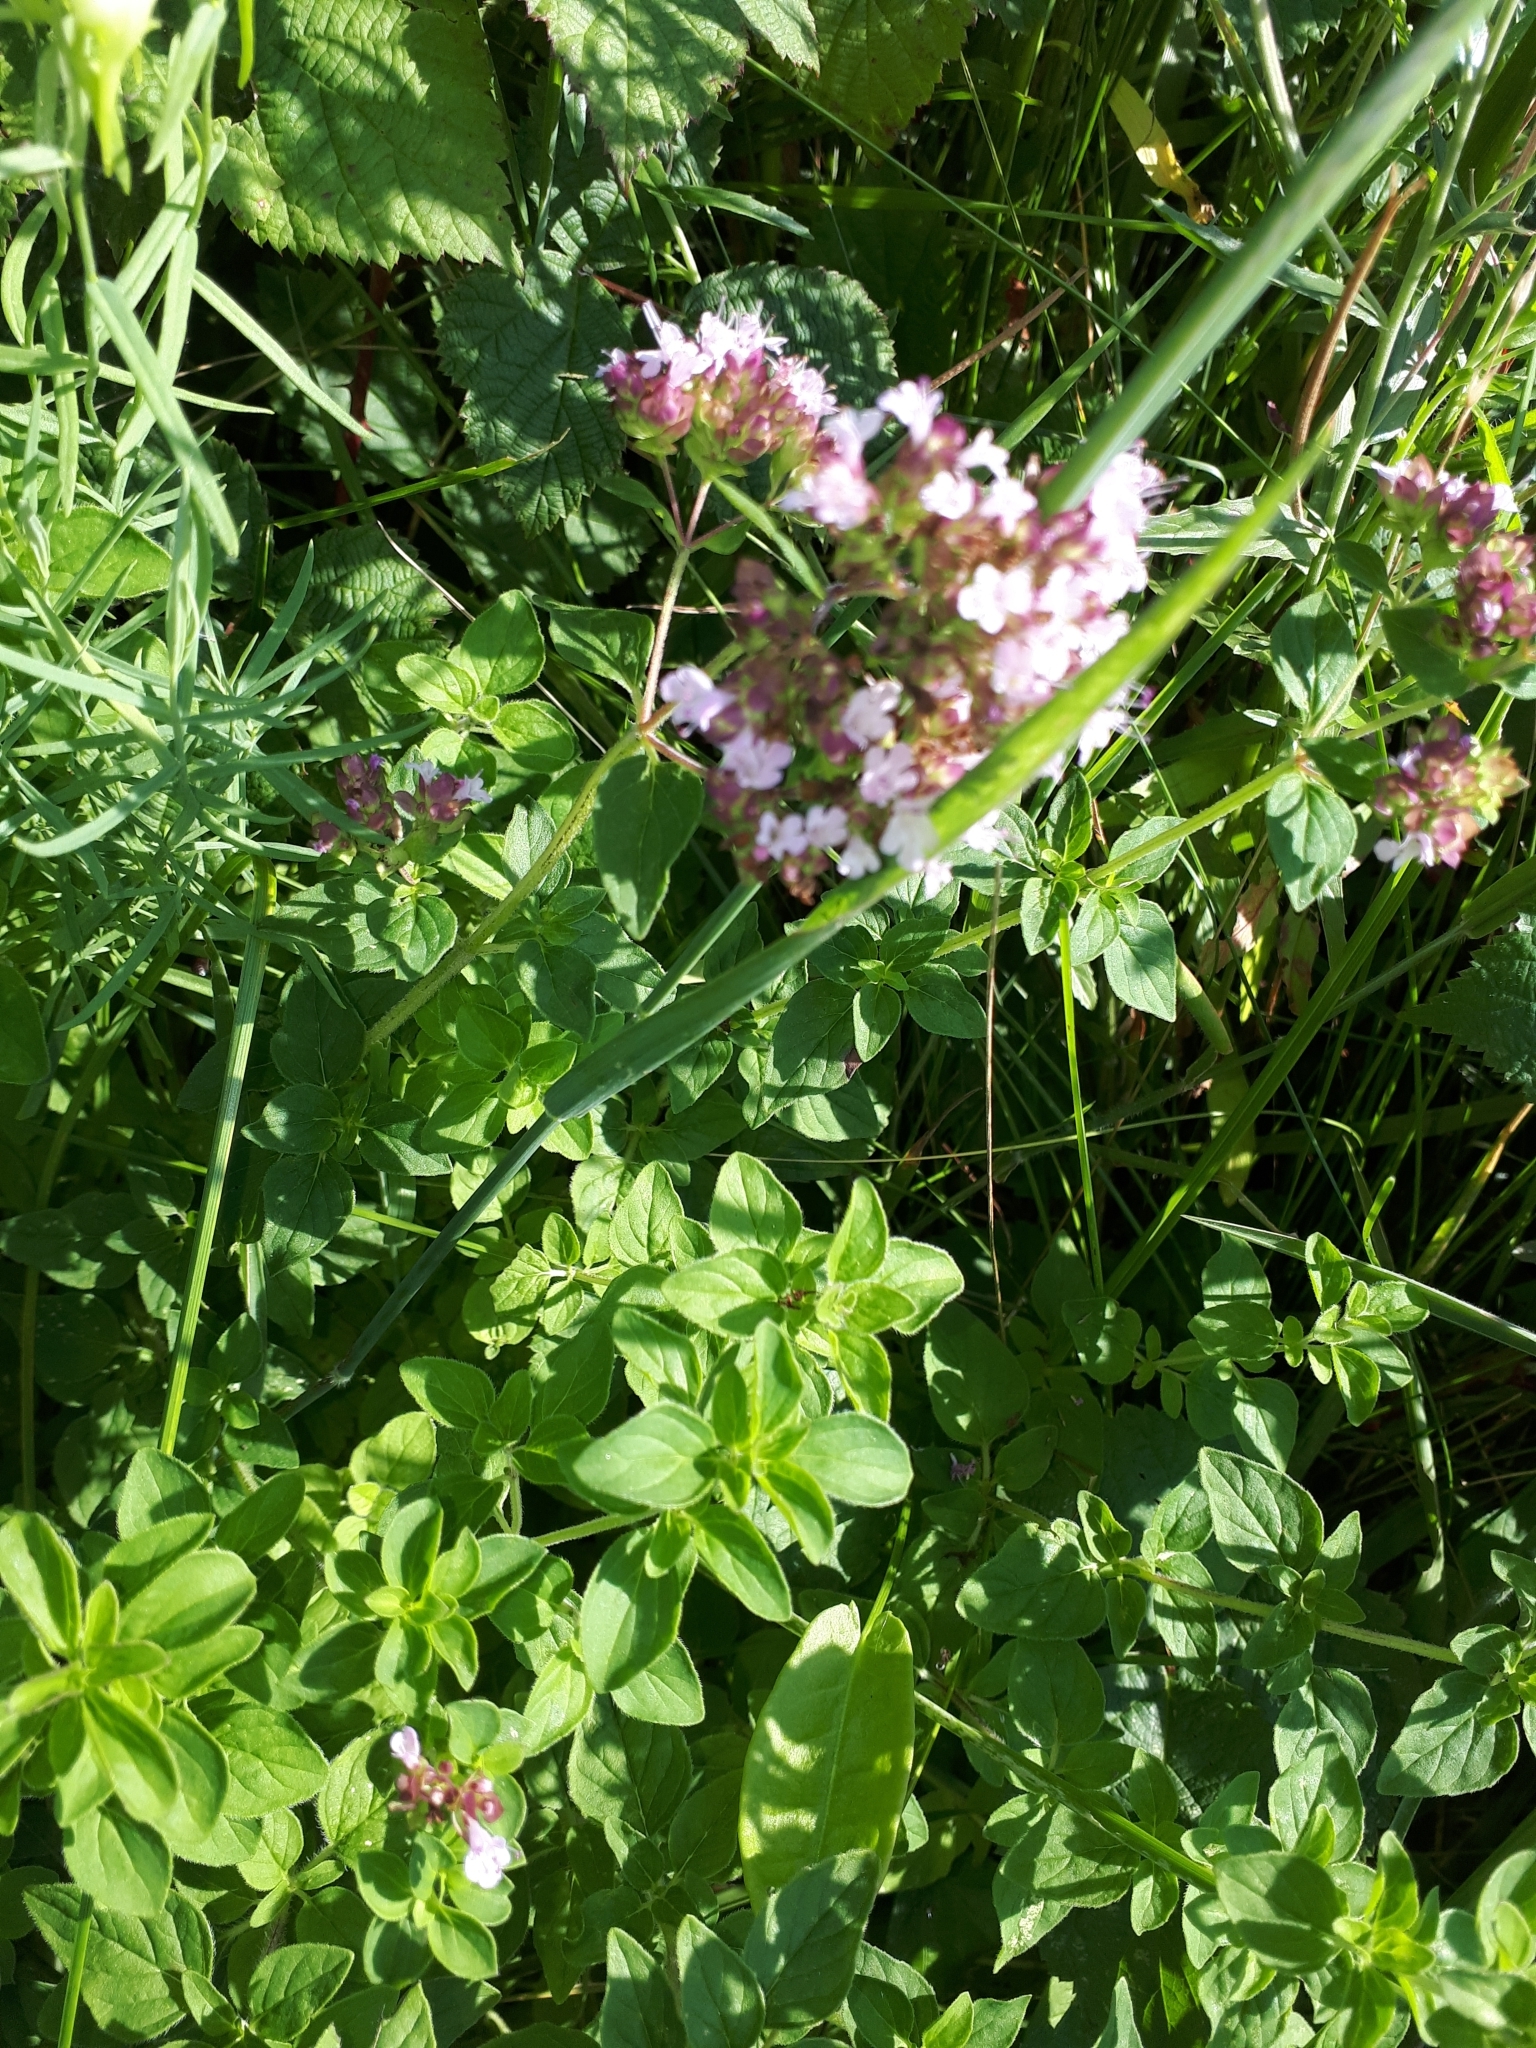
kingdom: Plantae
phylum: Tracheophyta
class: Magnoliopsida
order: Lamiales
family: Lamiaceae
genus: Origanum
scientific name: Origanum vulgare
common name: Wild marjoram
